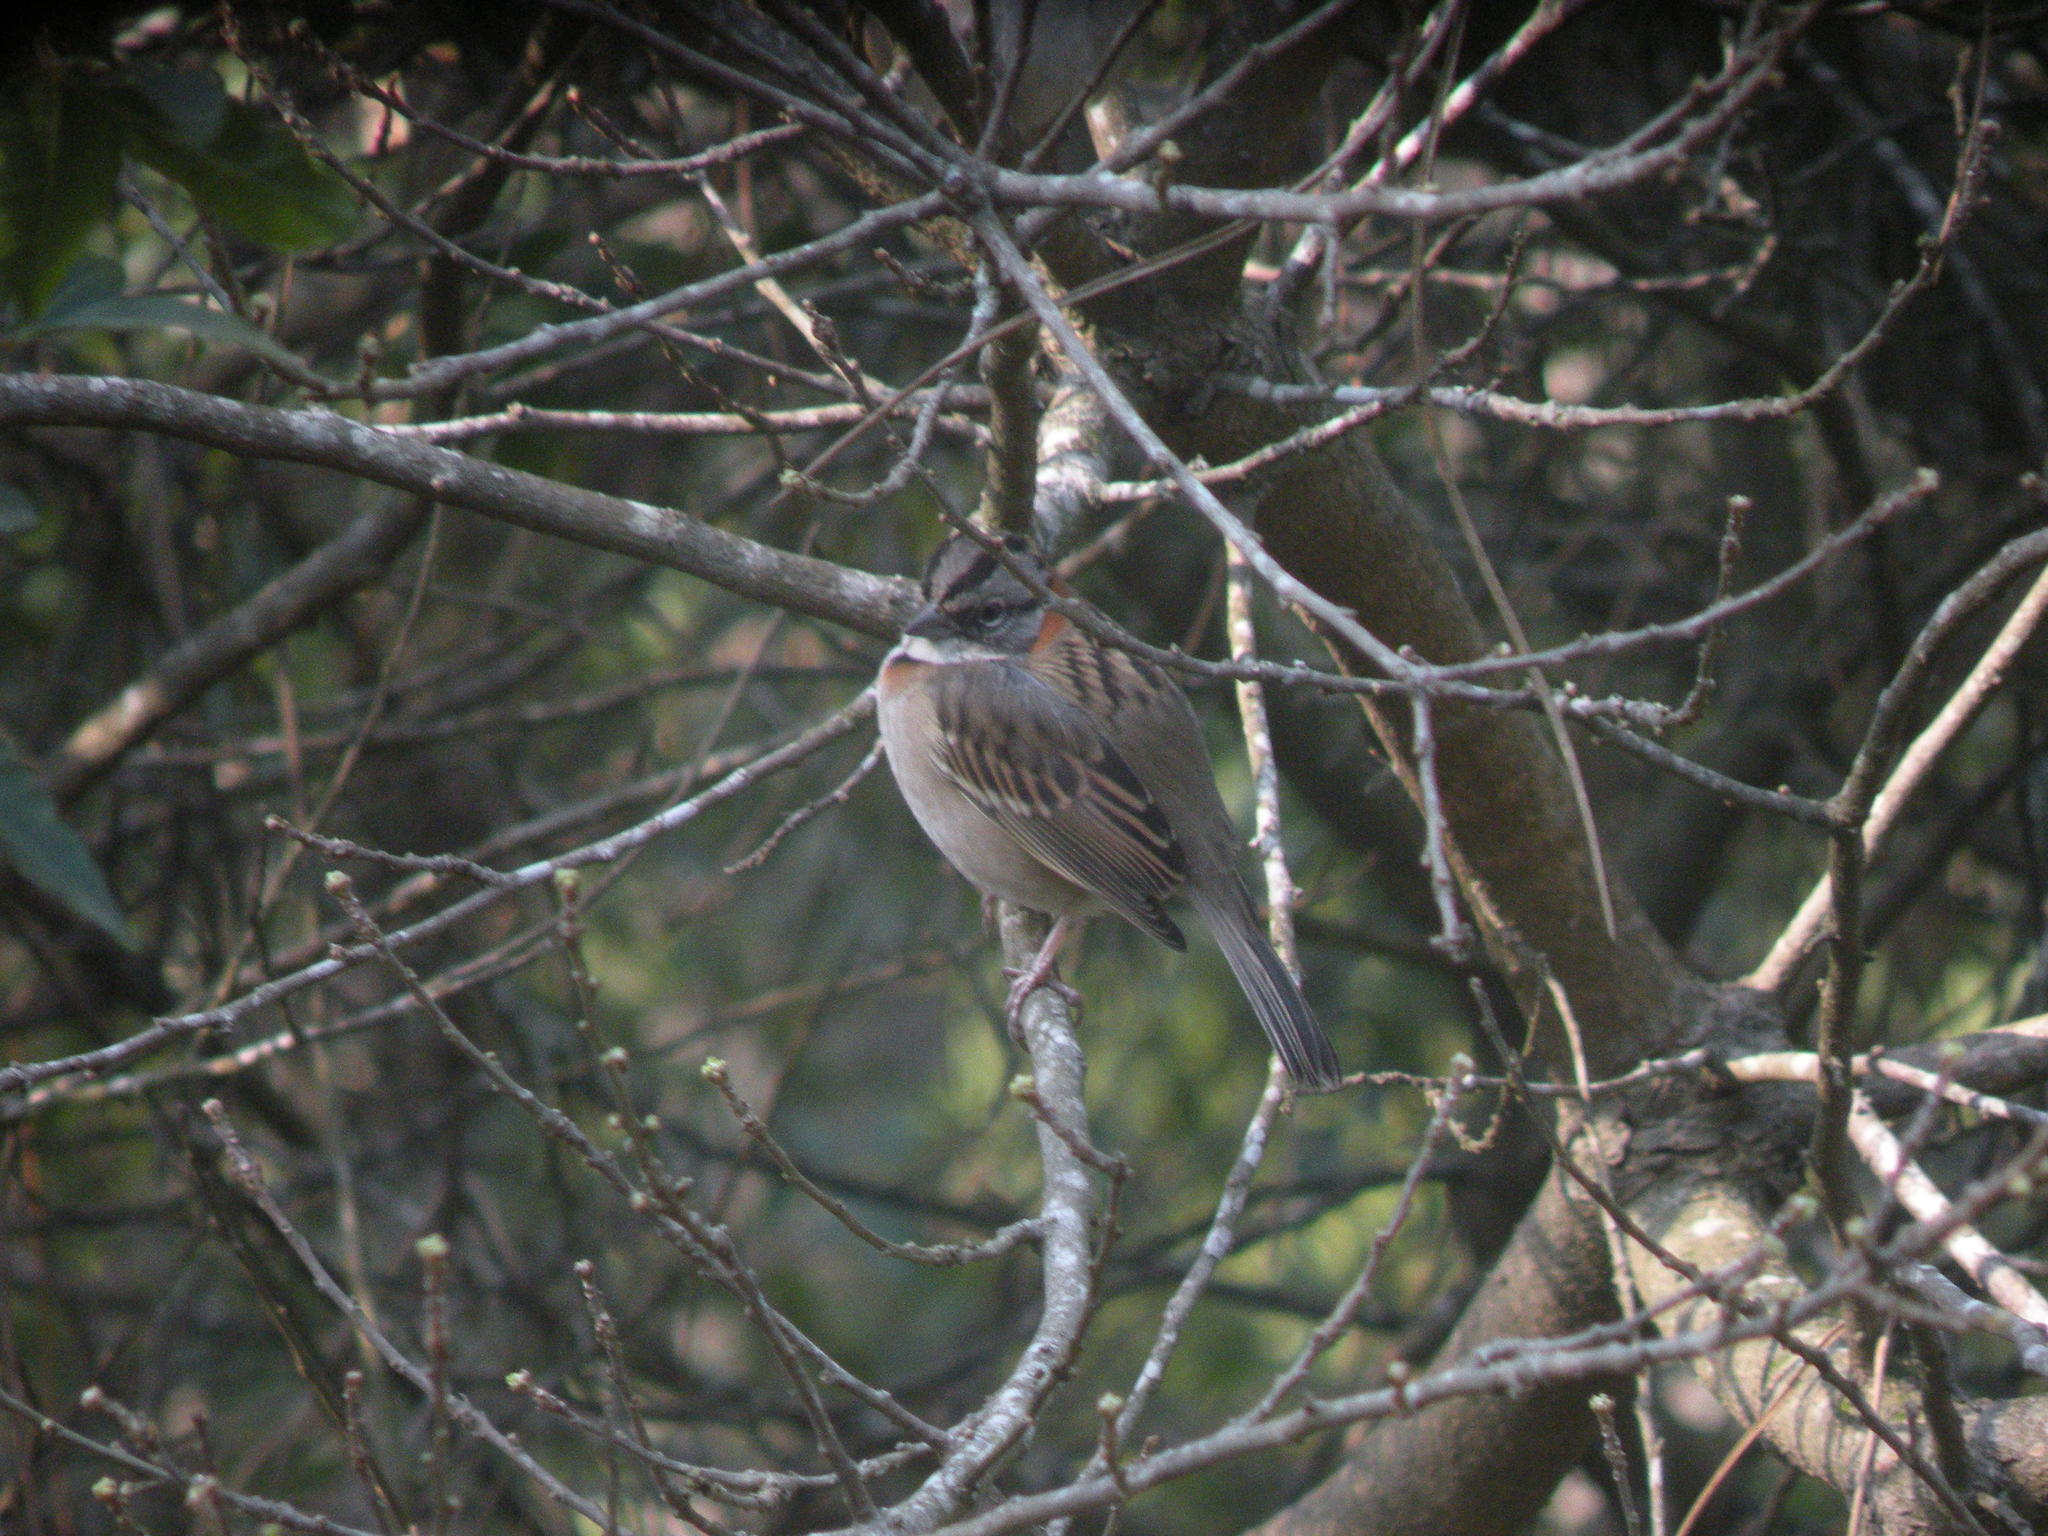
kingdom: Animalia
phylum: Chordata
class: Aves
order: Passeriformes
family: Passerellidae
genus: Zonotrichia
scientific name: Zonotrichia capensis
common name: Rufous-collared sparrow
